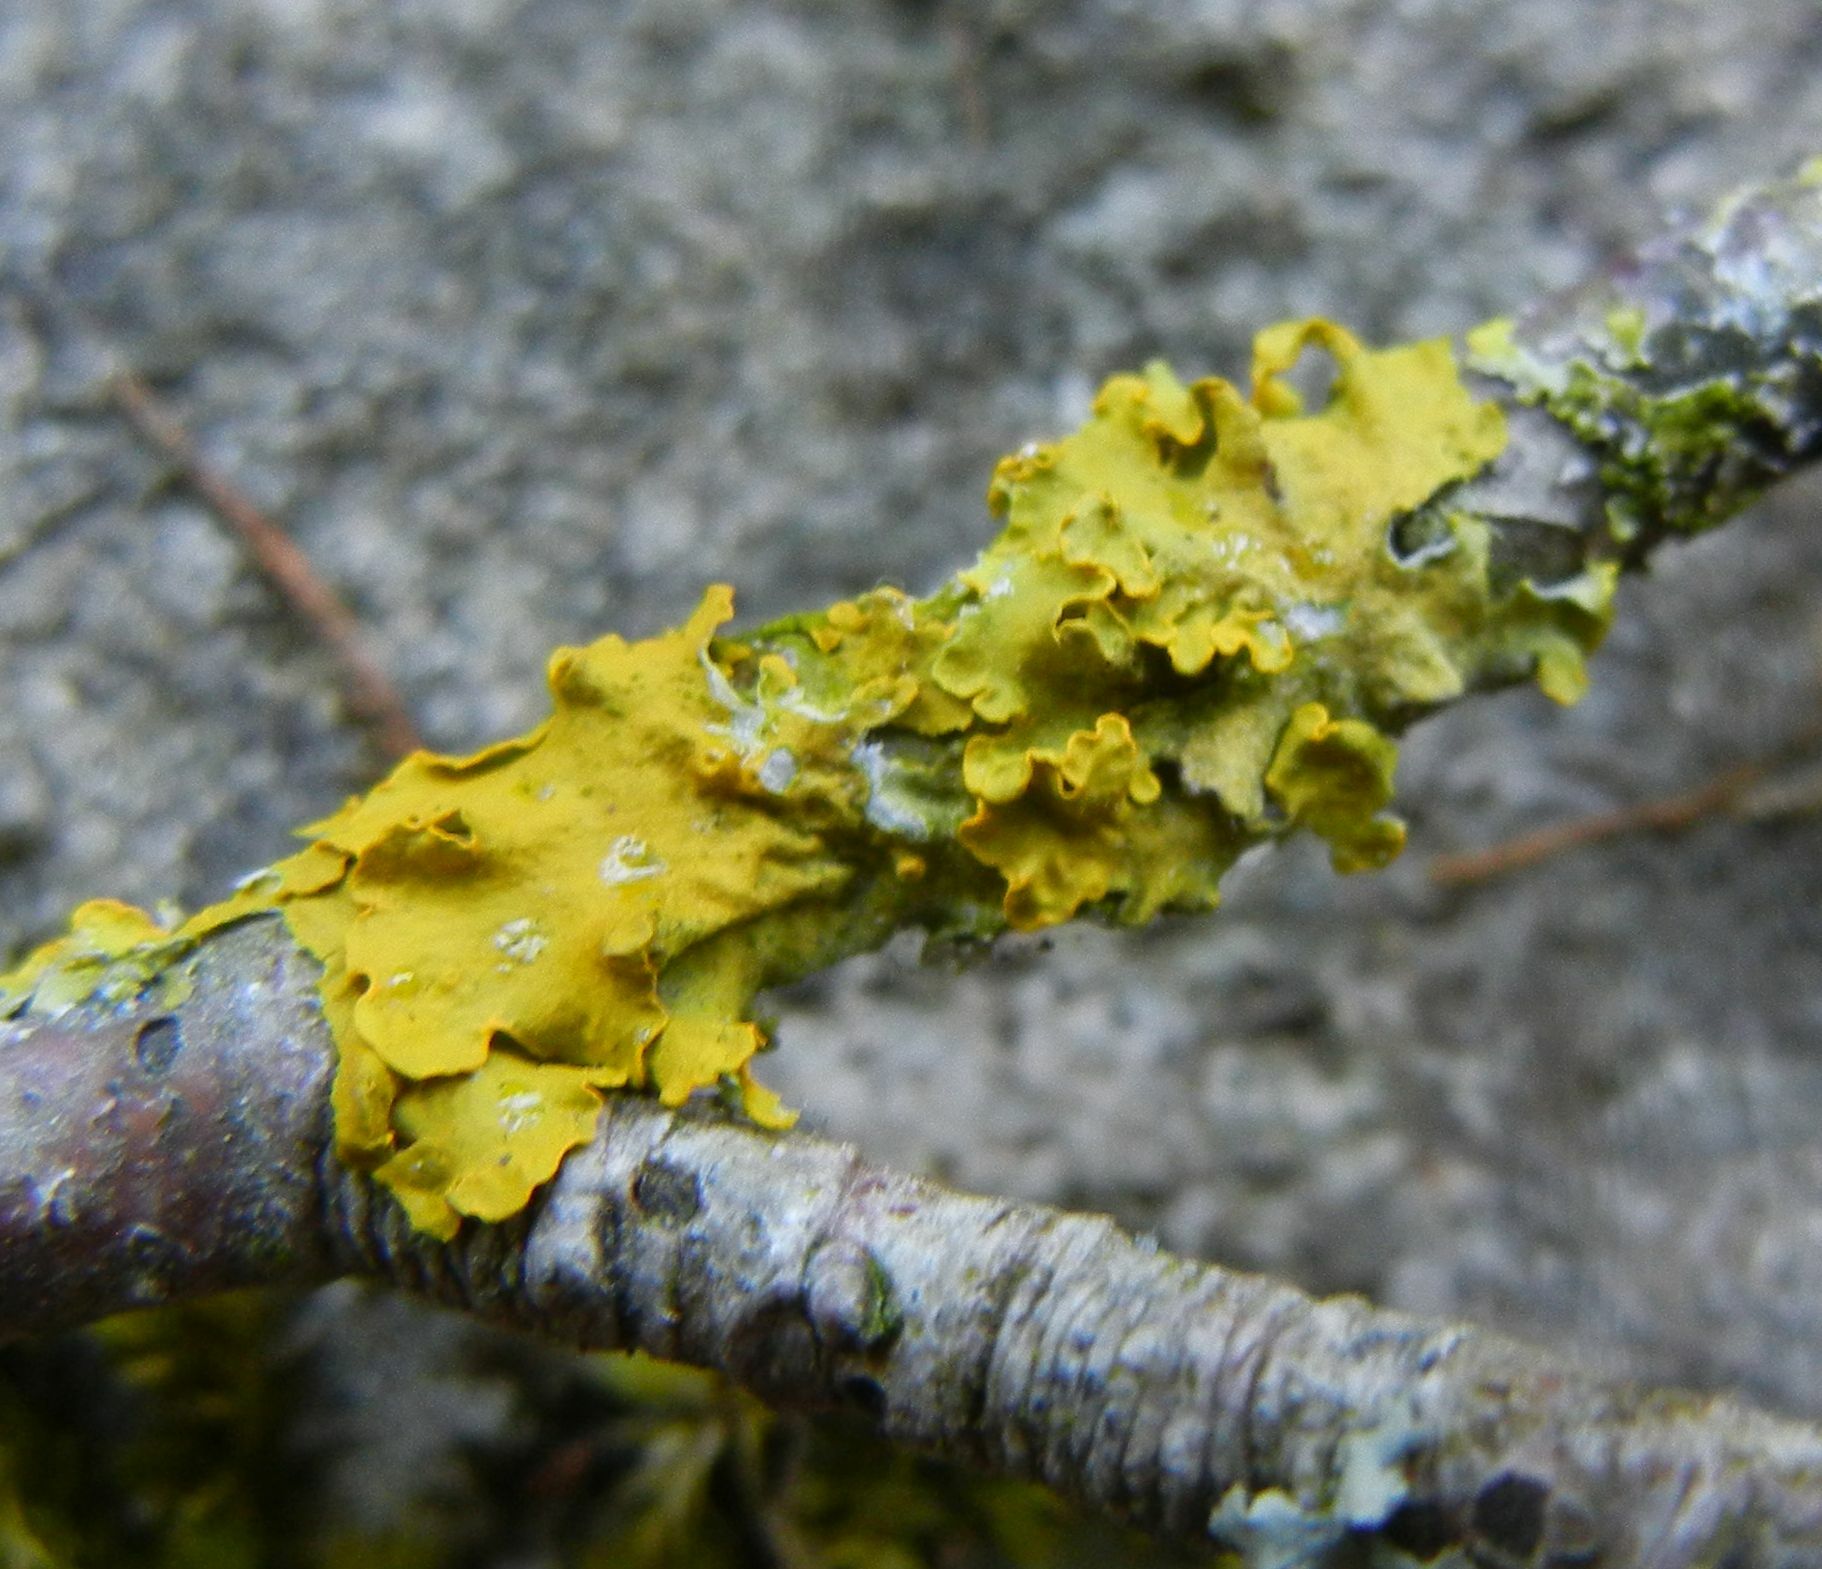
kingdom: Fungi
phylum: Ascomycota
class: Lecanoromycetes
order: Teloschistales
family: Teloschistaceae
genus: Xanthoria
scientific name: Xanthoria parietina
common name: Common orange lichen
